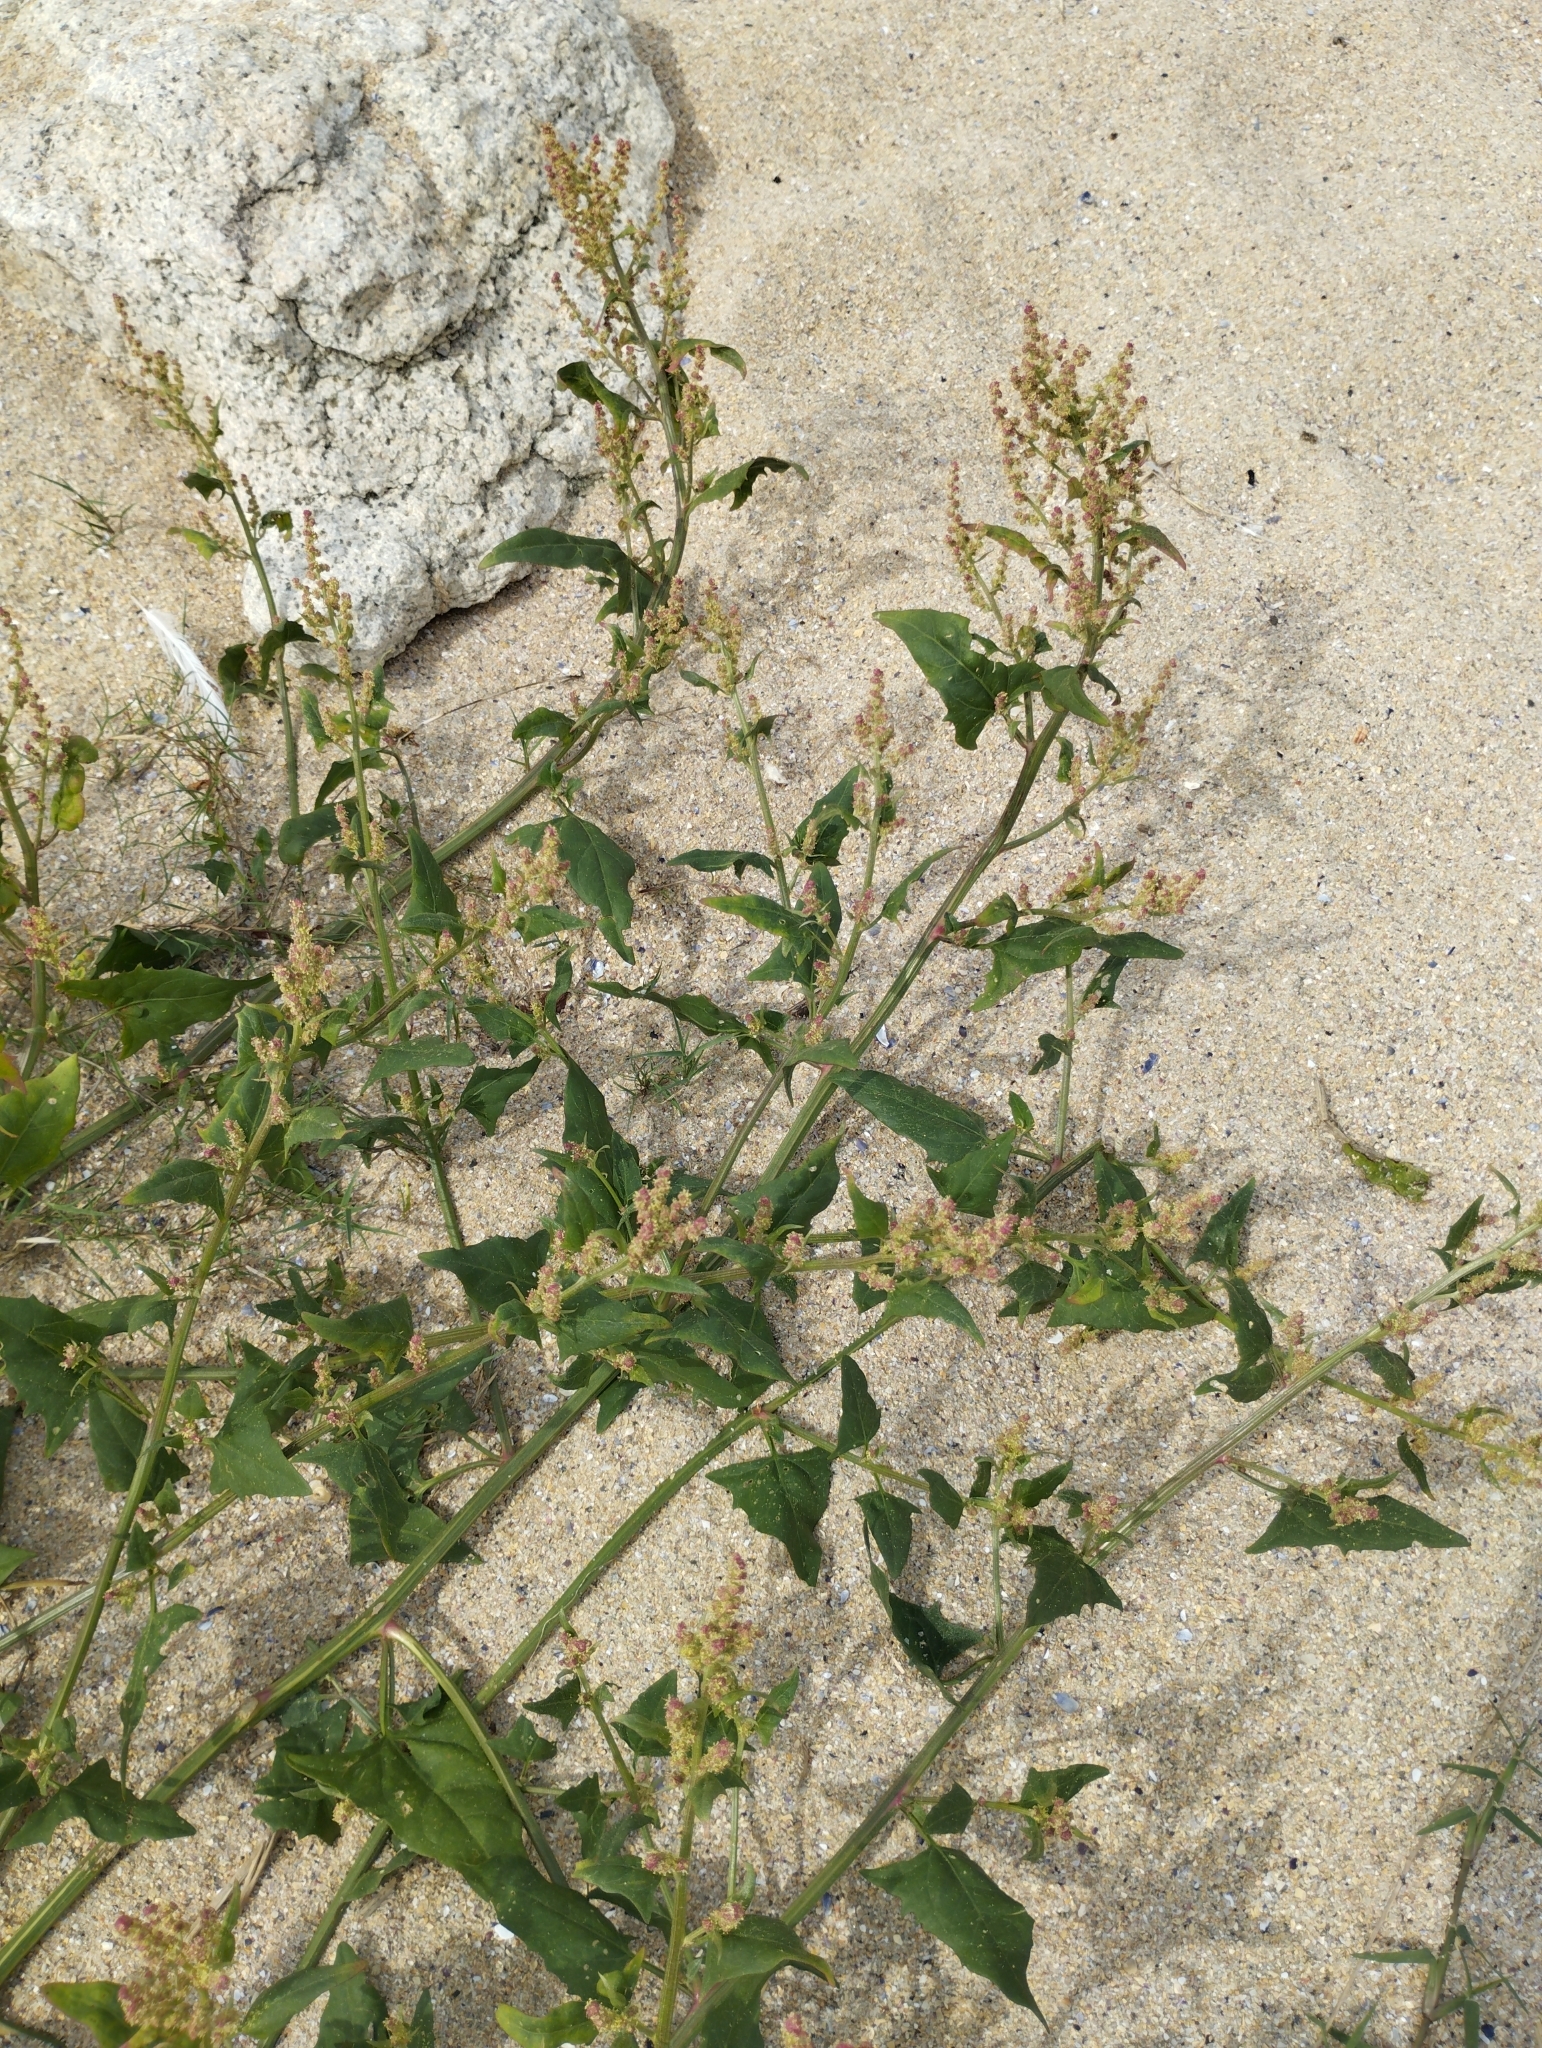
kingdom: Plantae
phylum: Tracheophyta
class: Magnoliopsida
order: Caryophyllales
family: Amaranthaceae
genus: Atriplex
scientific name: Atriplex prostrata
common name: Spear-leaved orache
